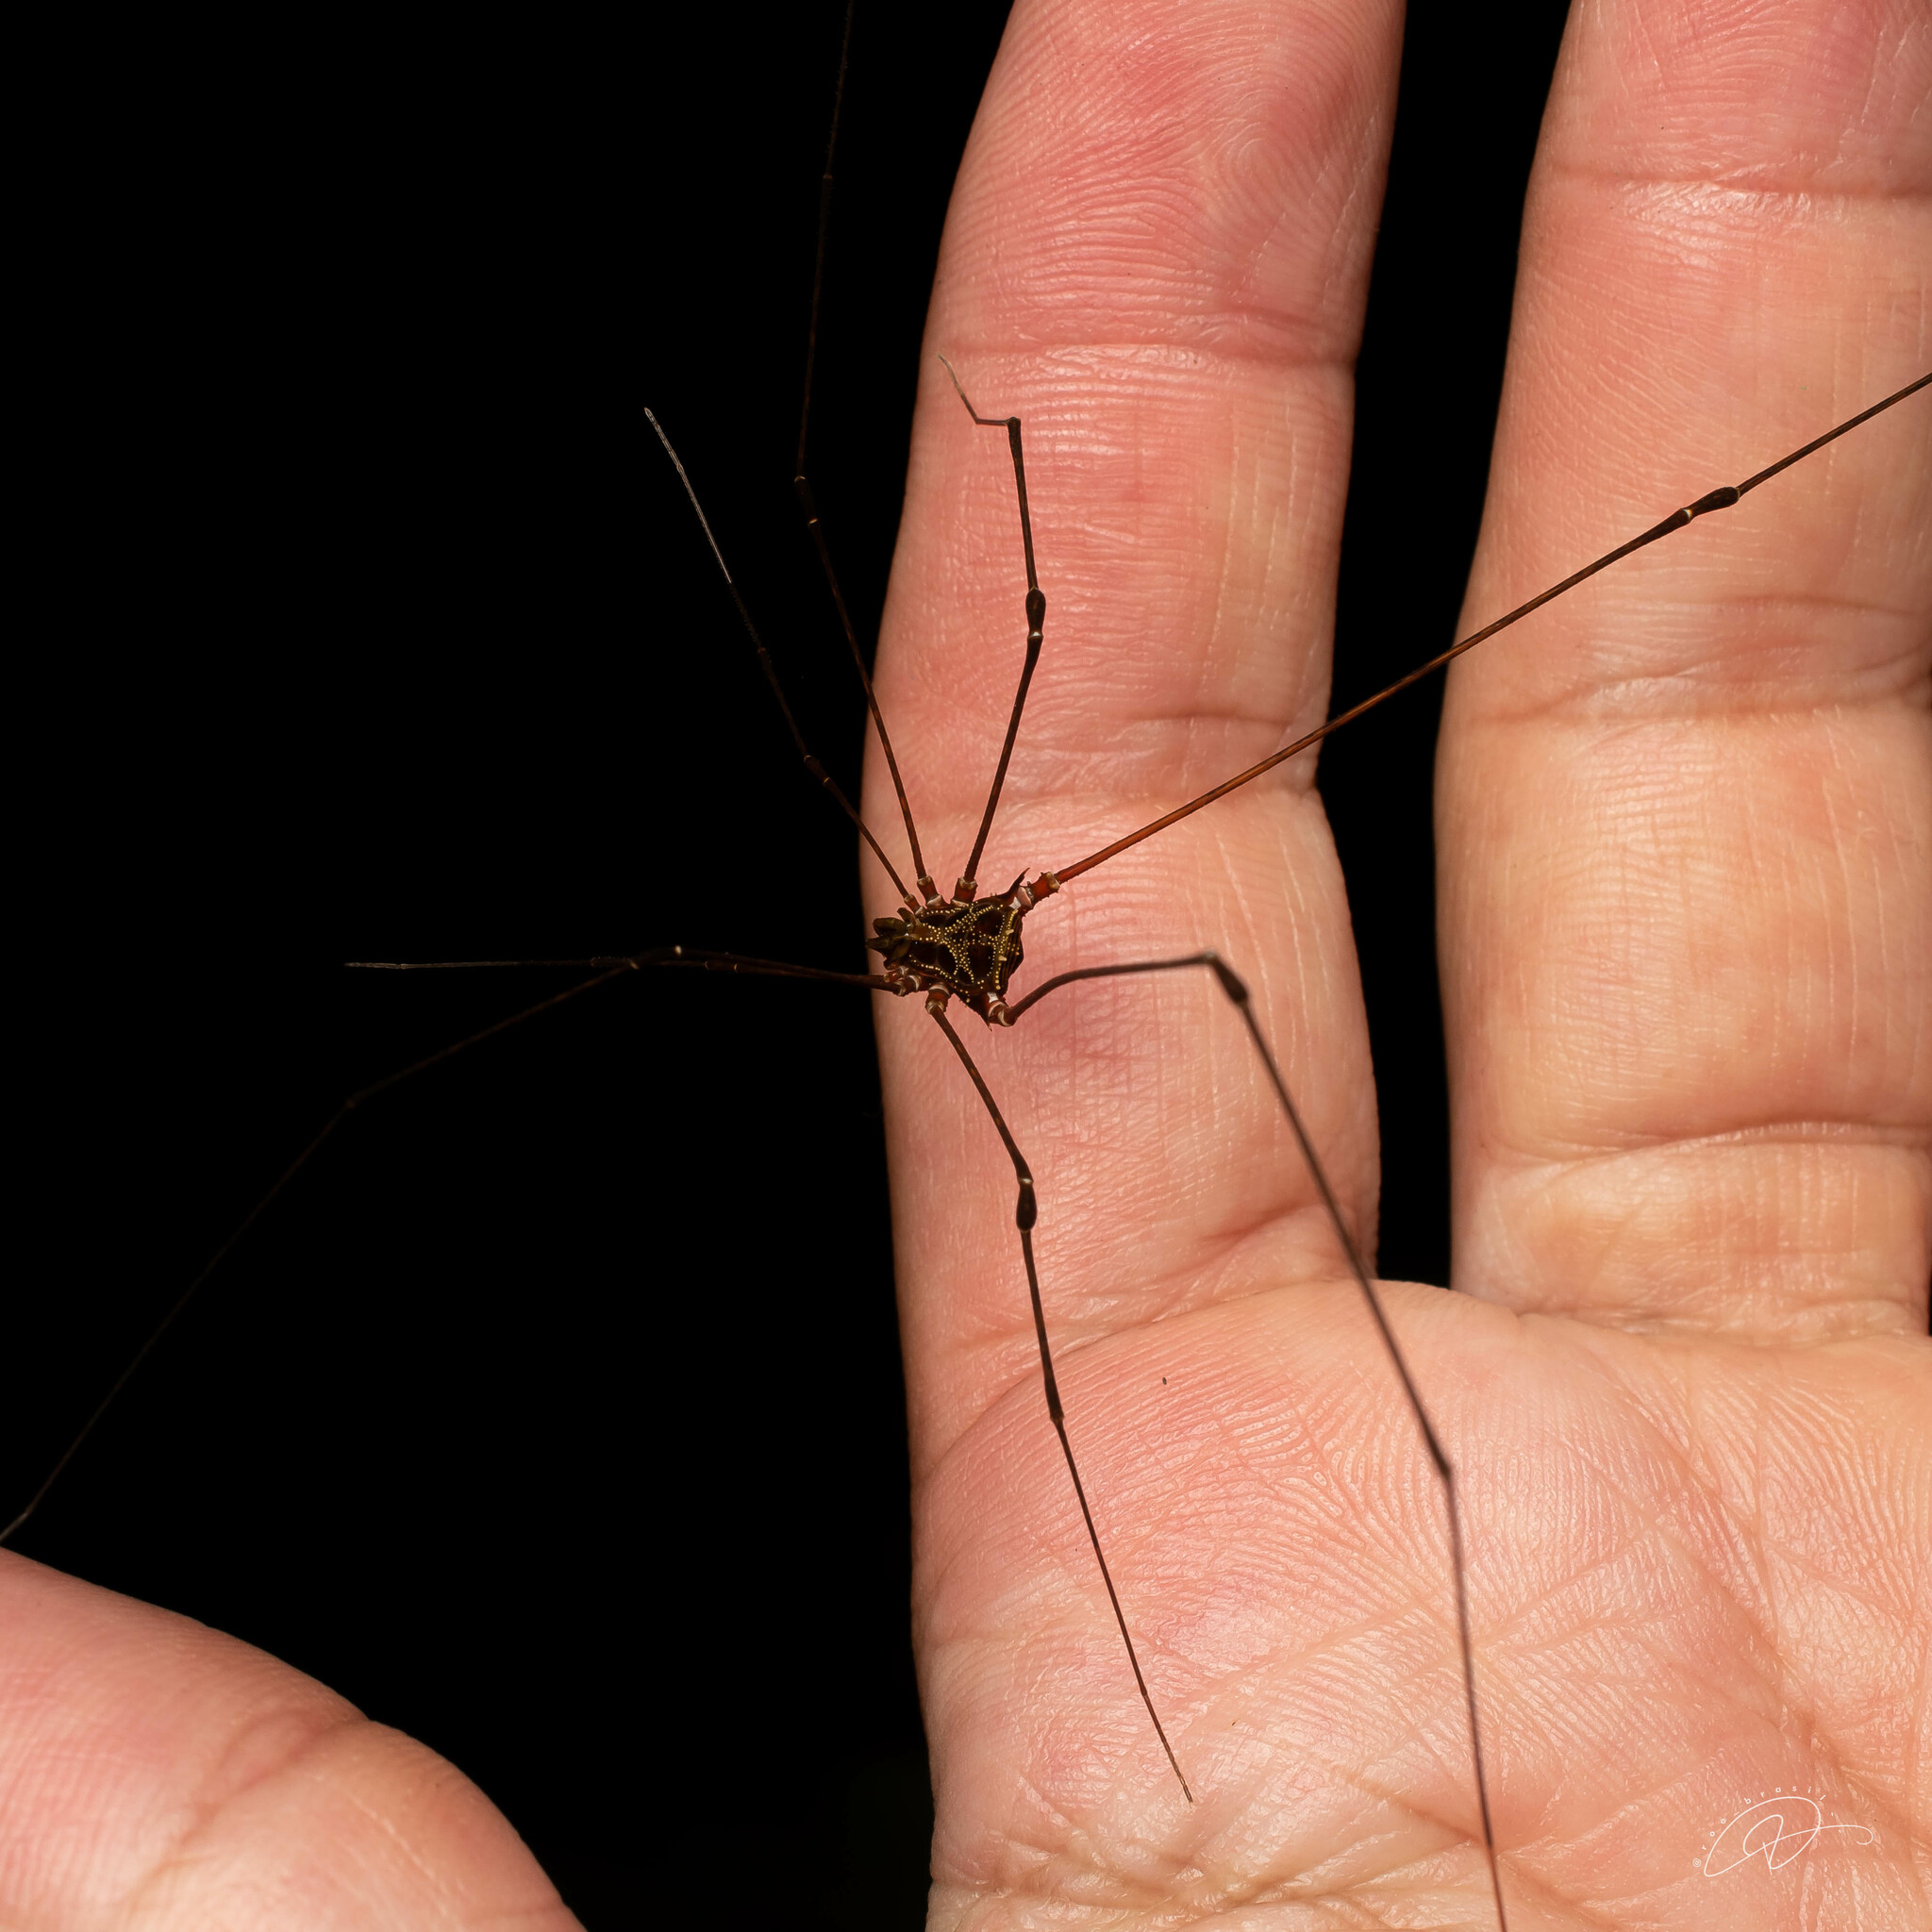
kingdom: Animalia
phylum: Arthropoda
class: Arachnida
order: Opiliones
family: Gonyleptidae
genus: Promitobates
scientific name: Promitobates intermedius
